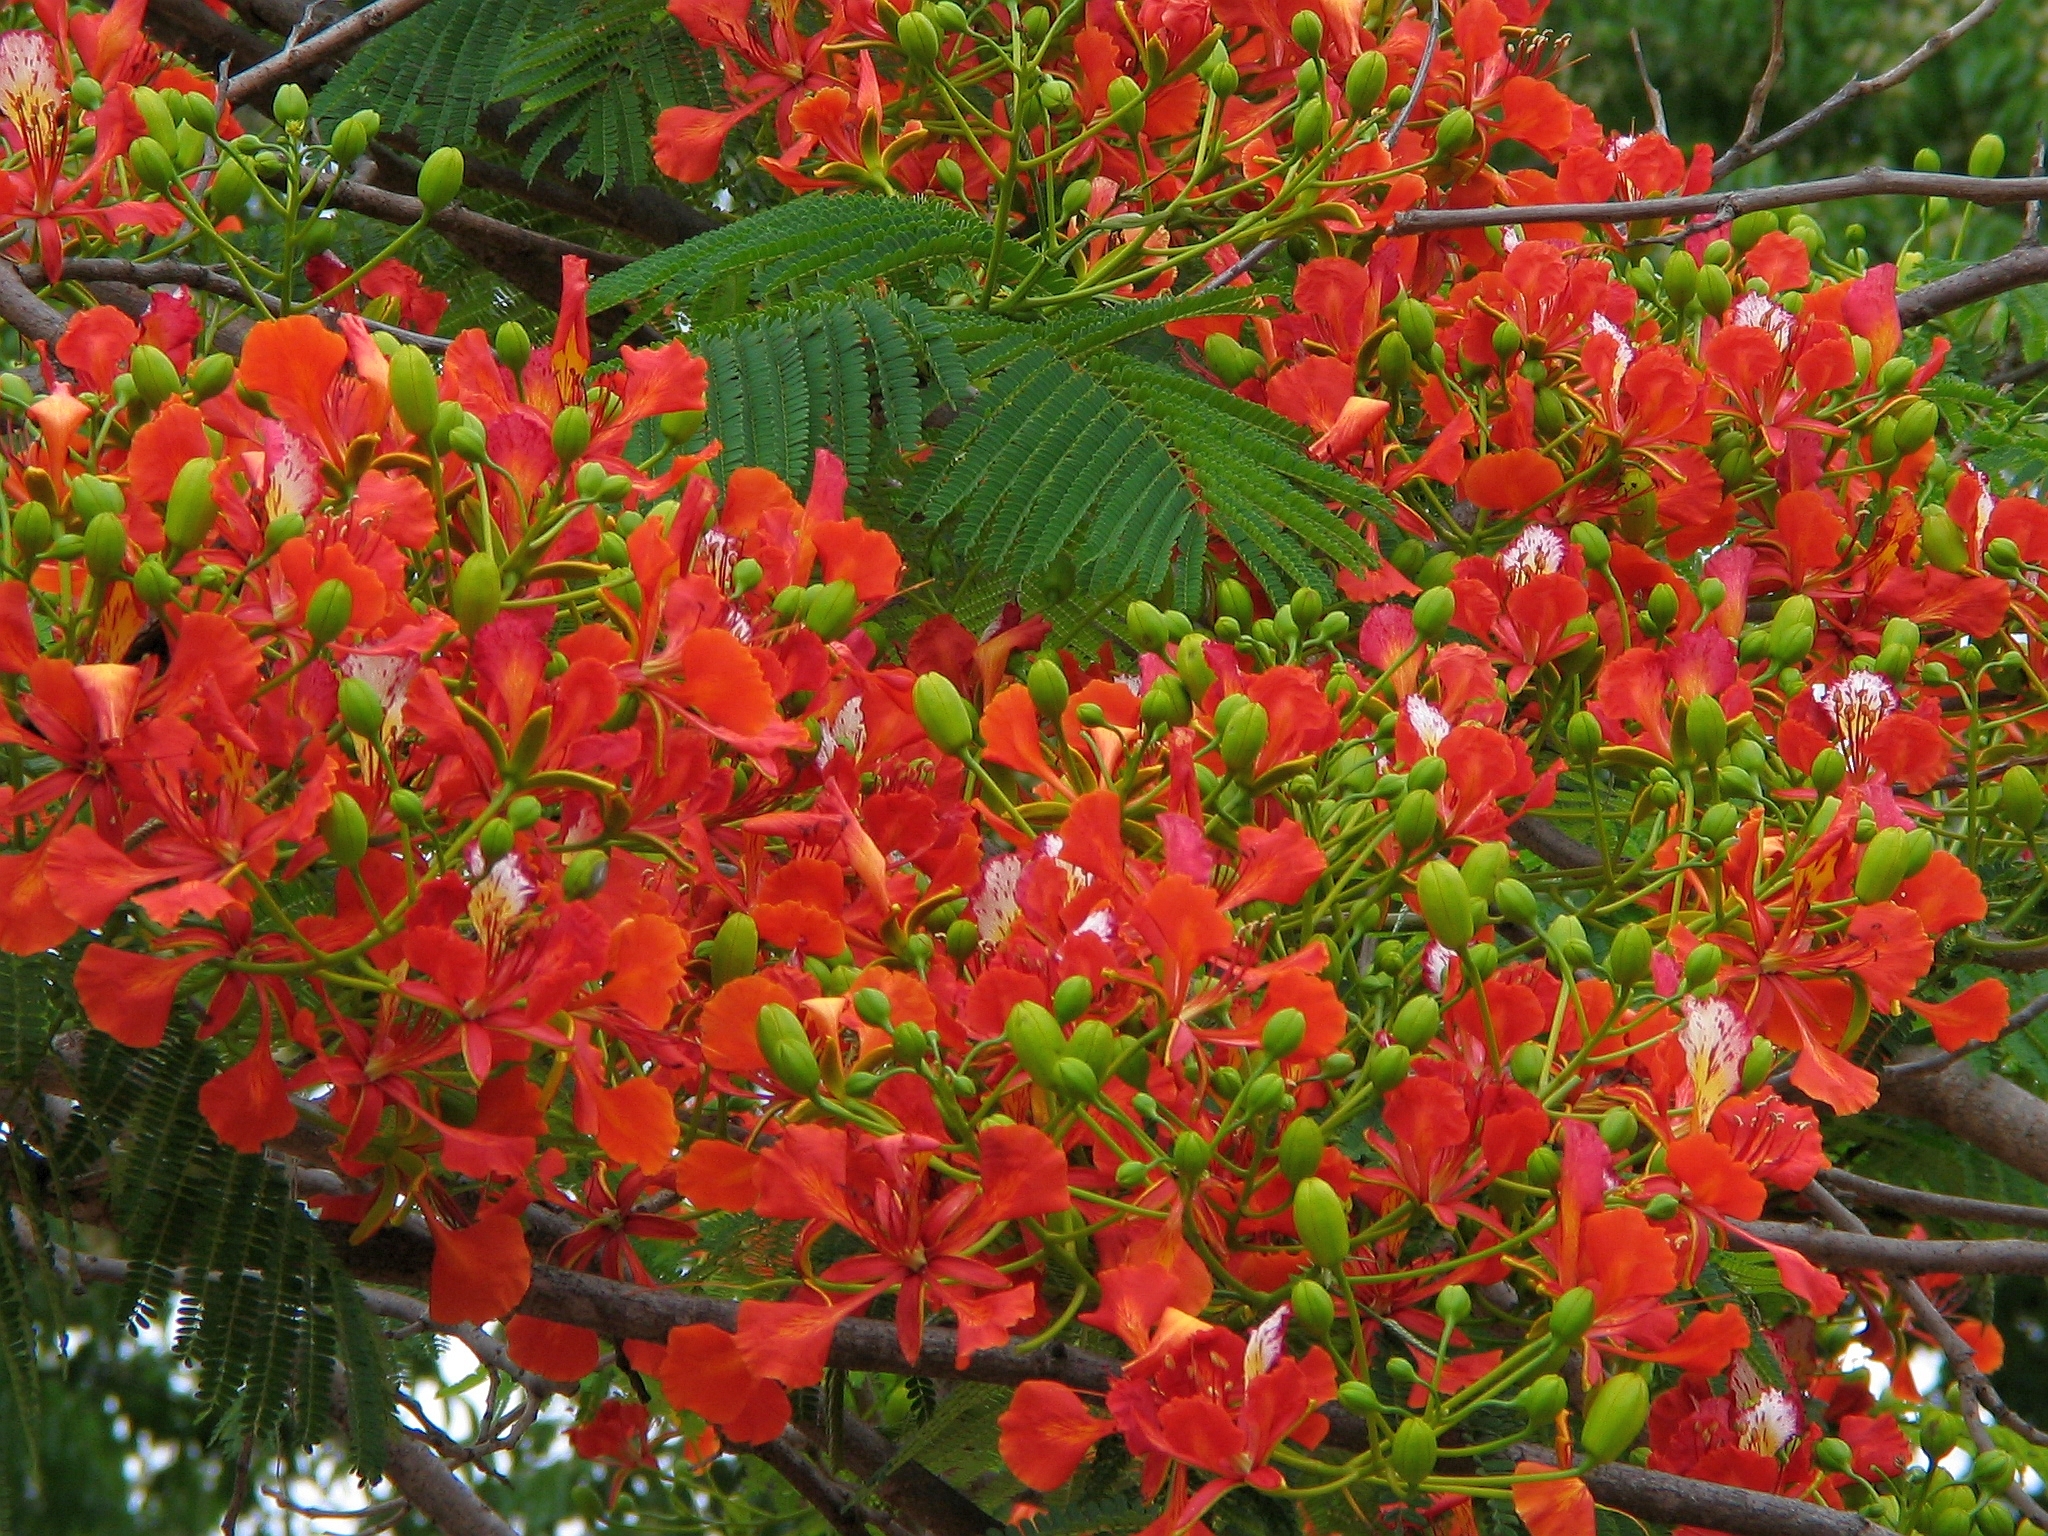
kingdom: Plantae
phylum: Tracheophyta
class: Magnoliopsida
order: Fabales
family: Fabaceae
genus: Delonix
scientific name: Delonix regia
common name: Royal poinciana
